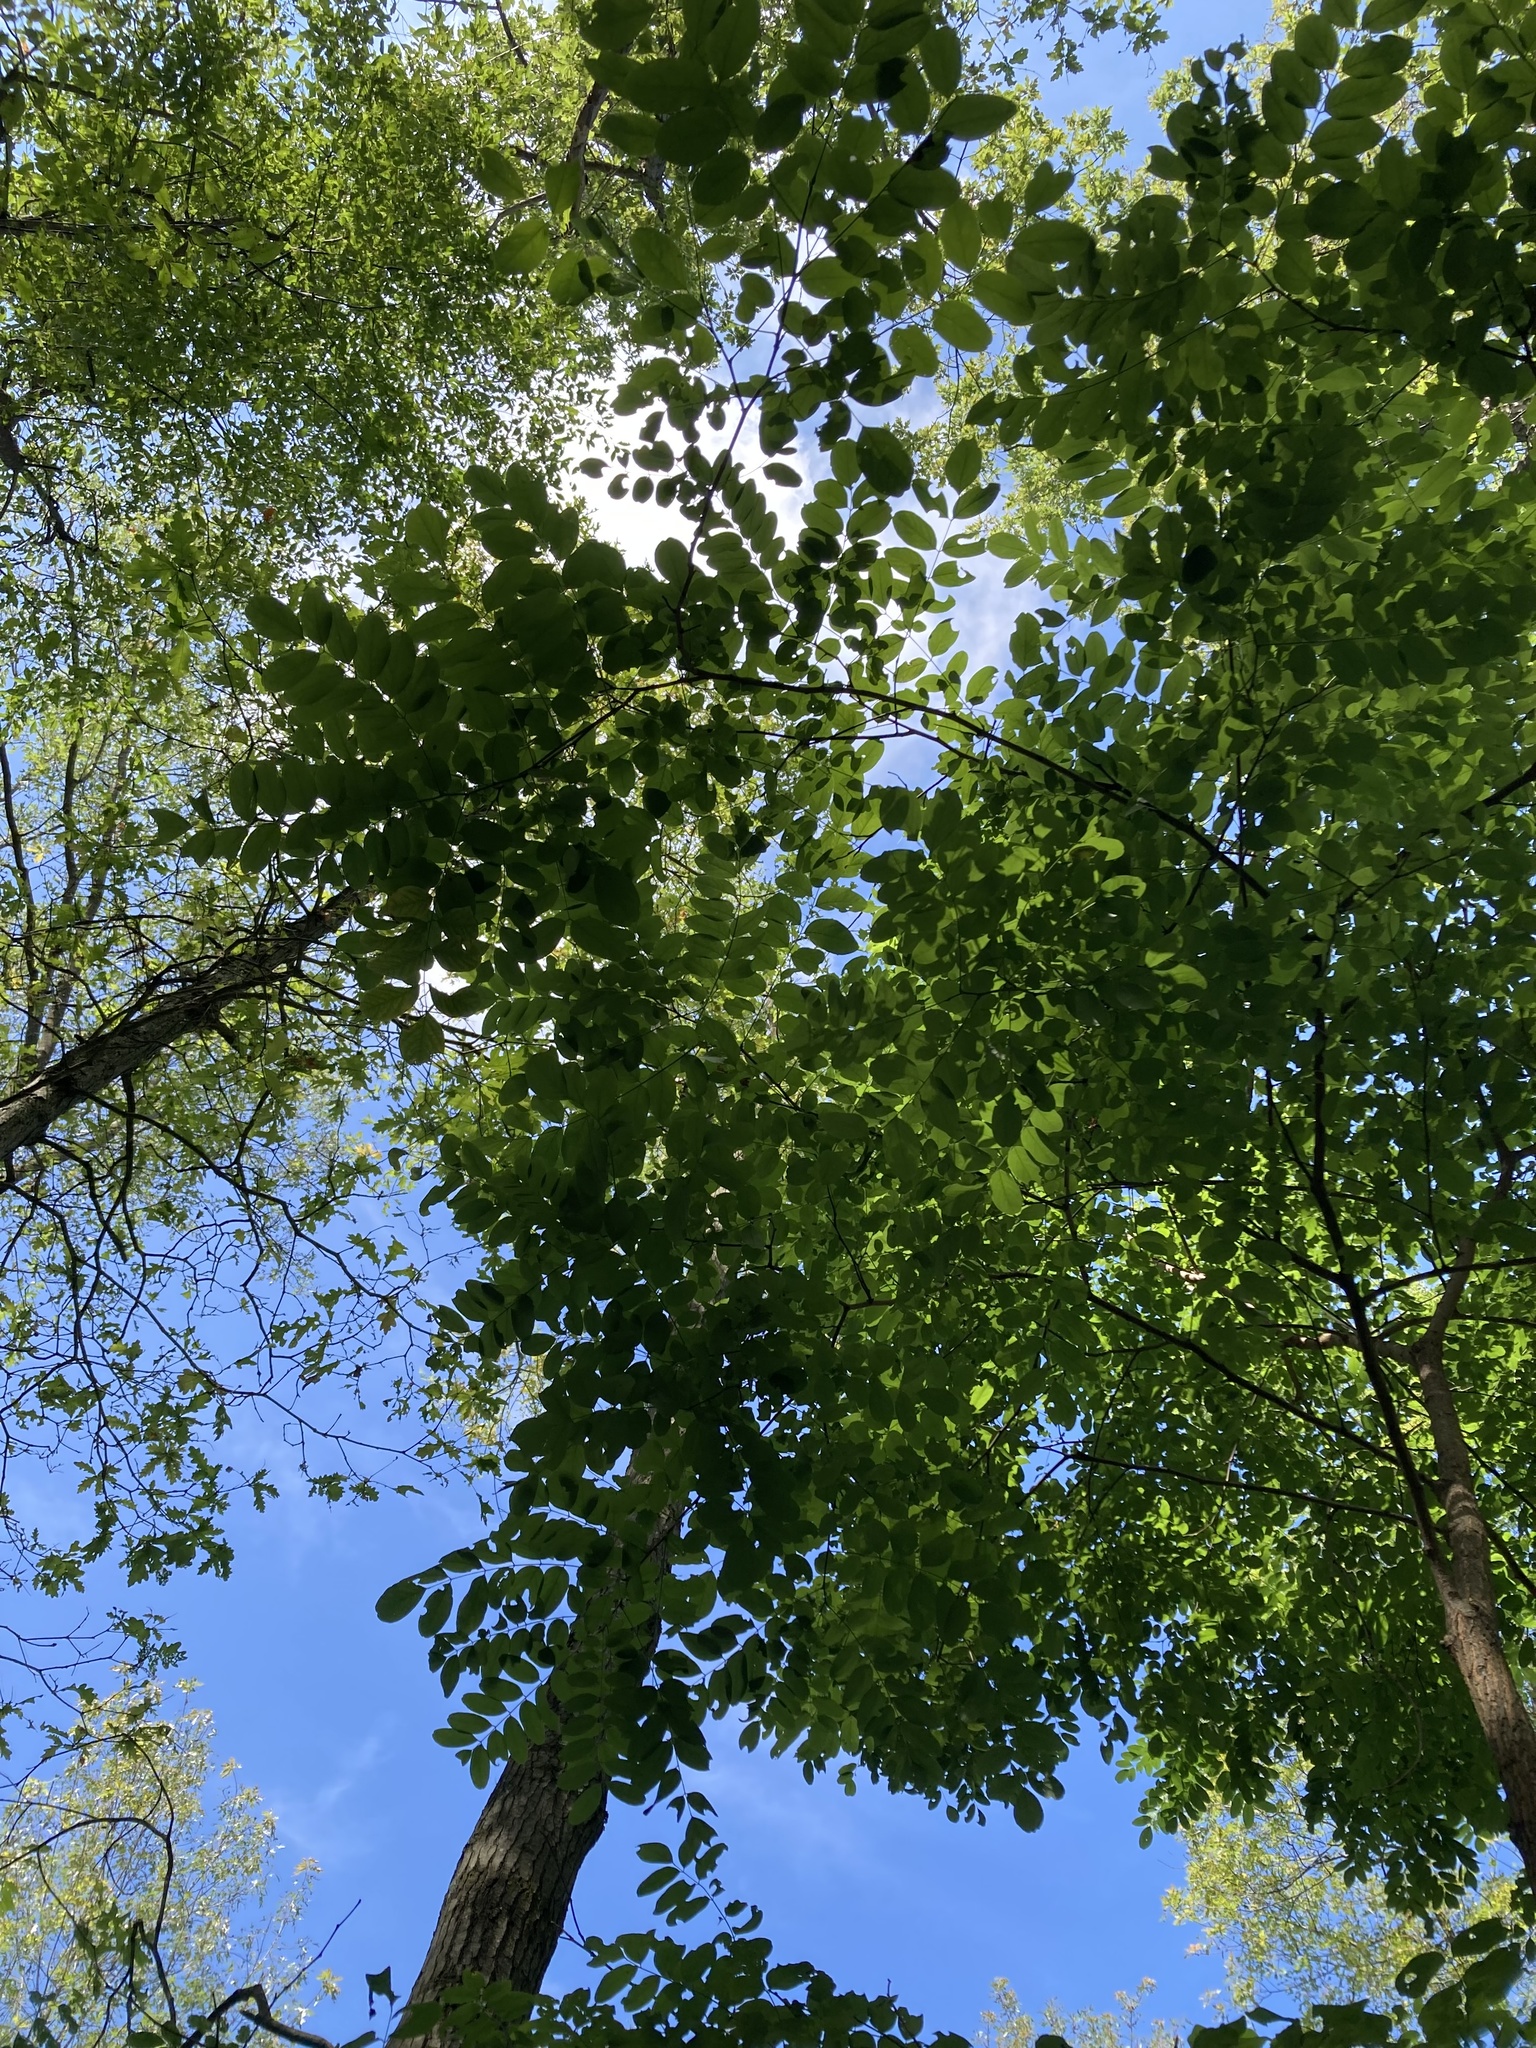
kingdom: Plantae
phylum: Tracheophyta
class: Magnoliopsida
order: Fabales
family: Fabaceae
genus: Robinia
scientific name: Robinia pseudoacacia
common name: Black locust
